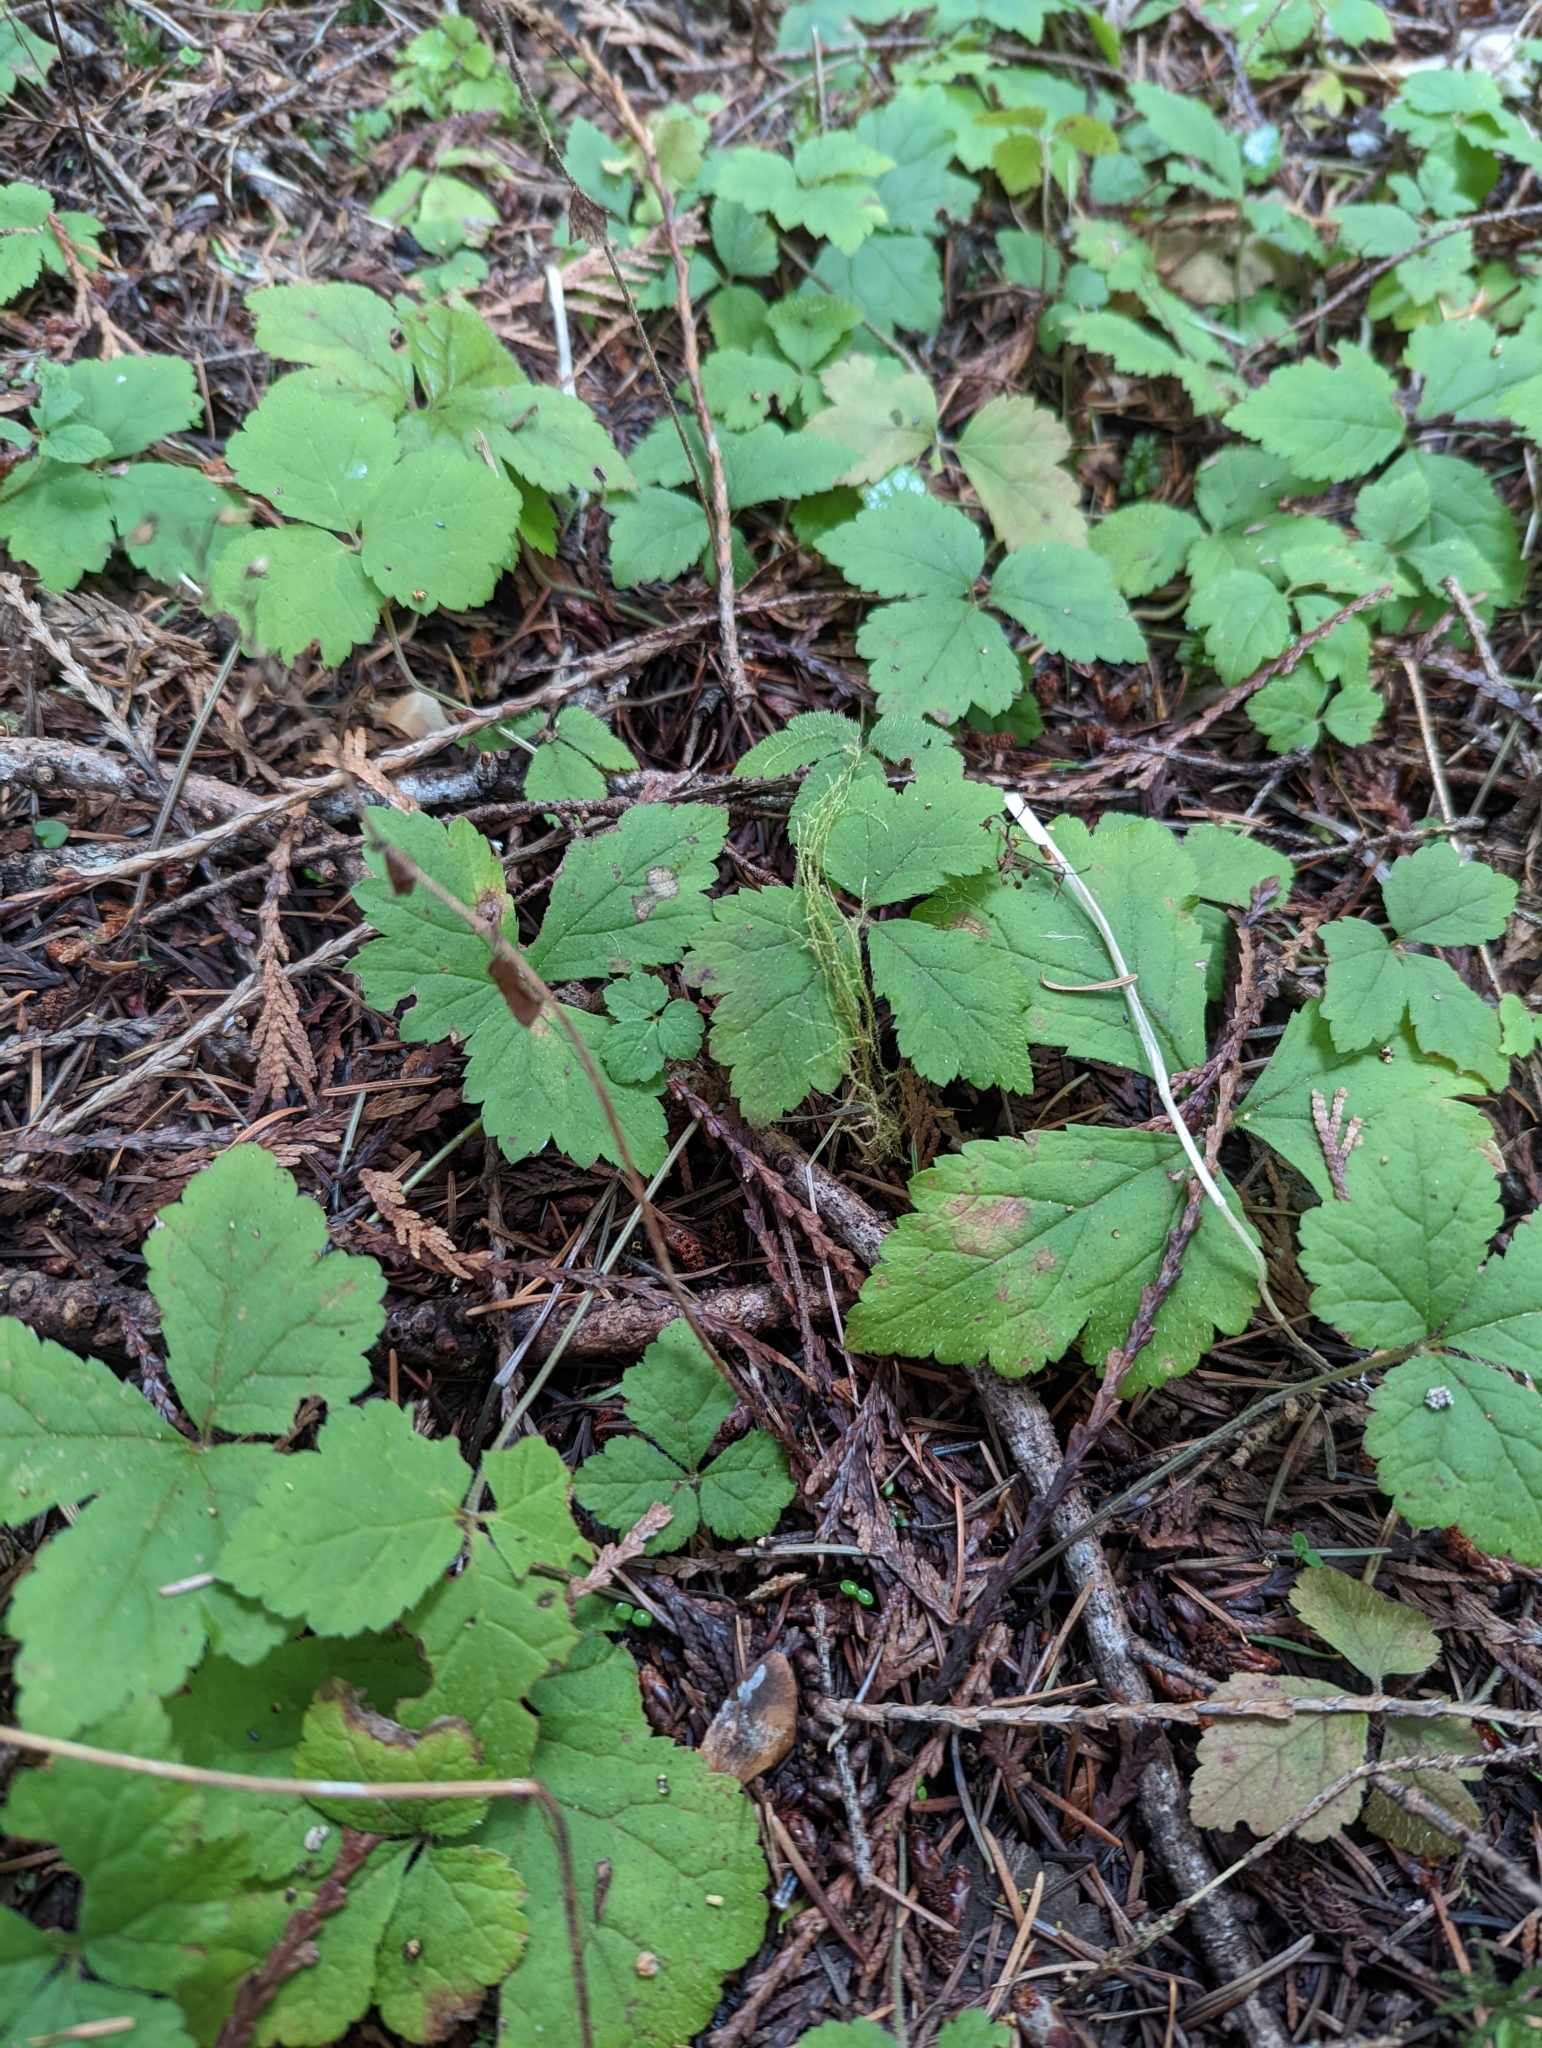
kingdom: Plantae
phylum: Tracheophyta
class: Magnoliopsida
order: Saxifragales
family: Saxifragaceae
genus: Tiarella
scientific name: Tiarella trifoliata
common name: Sugar-scoop
